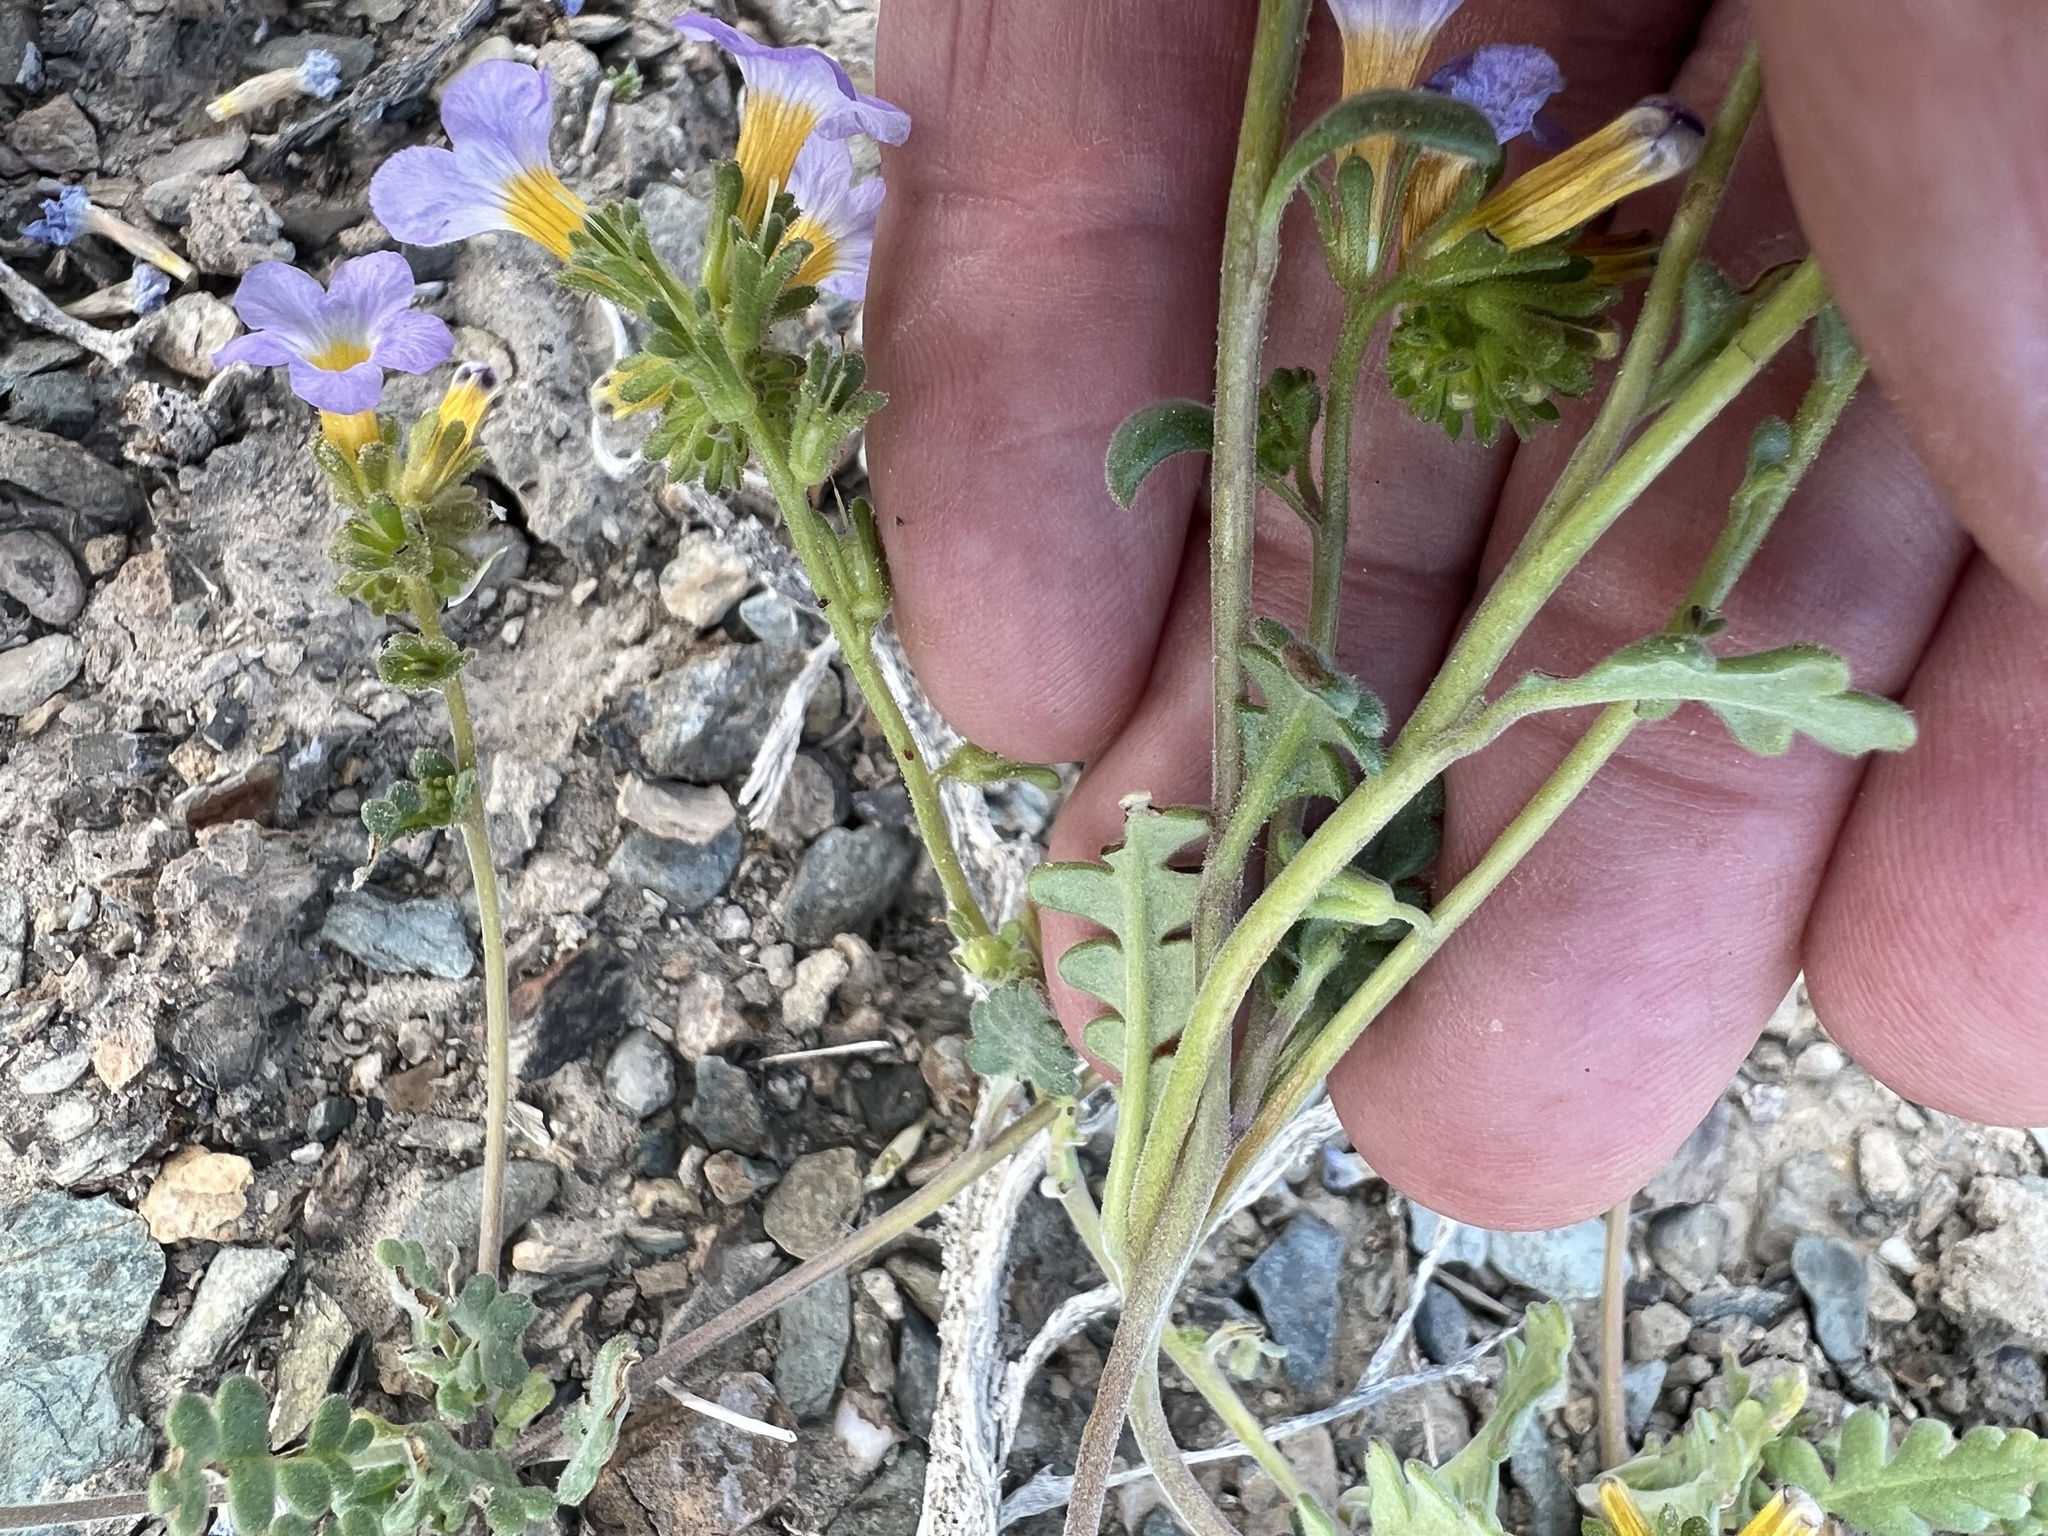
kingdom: Plantae
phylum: Tracheophyta
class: Magnoliopsida
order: Boraginales
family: Hydrophyllaceae
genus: Phacelia
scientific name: Phacelia fremontii
